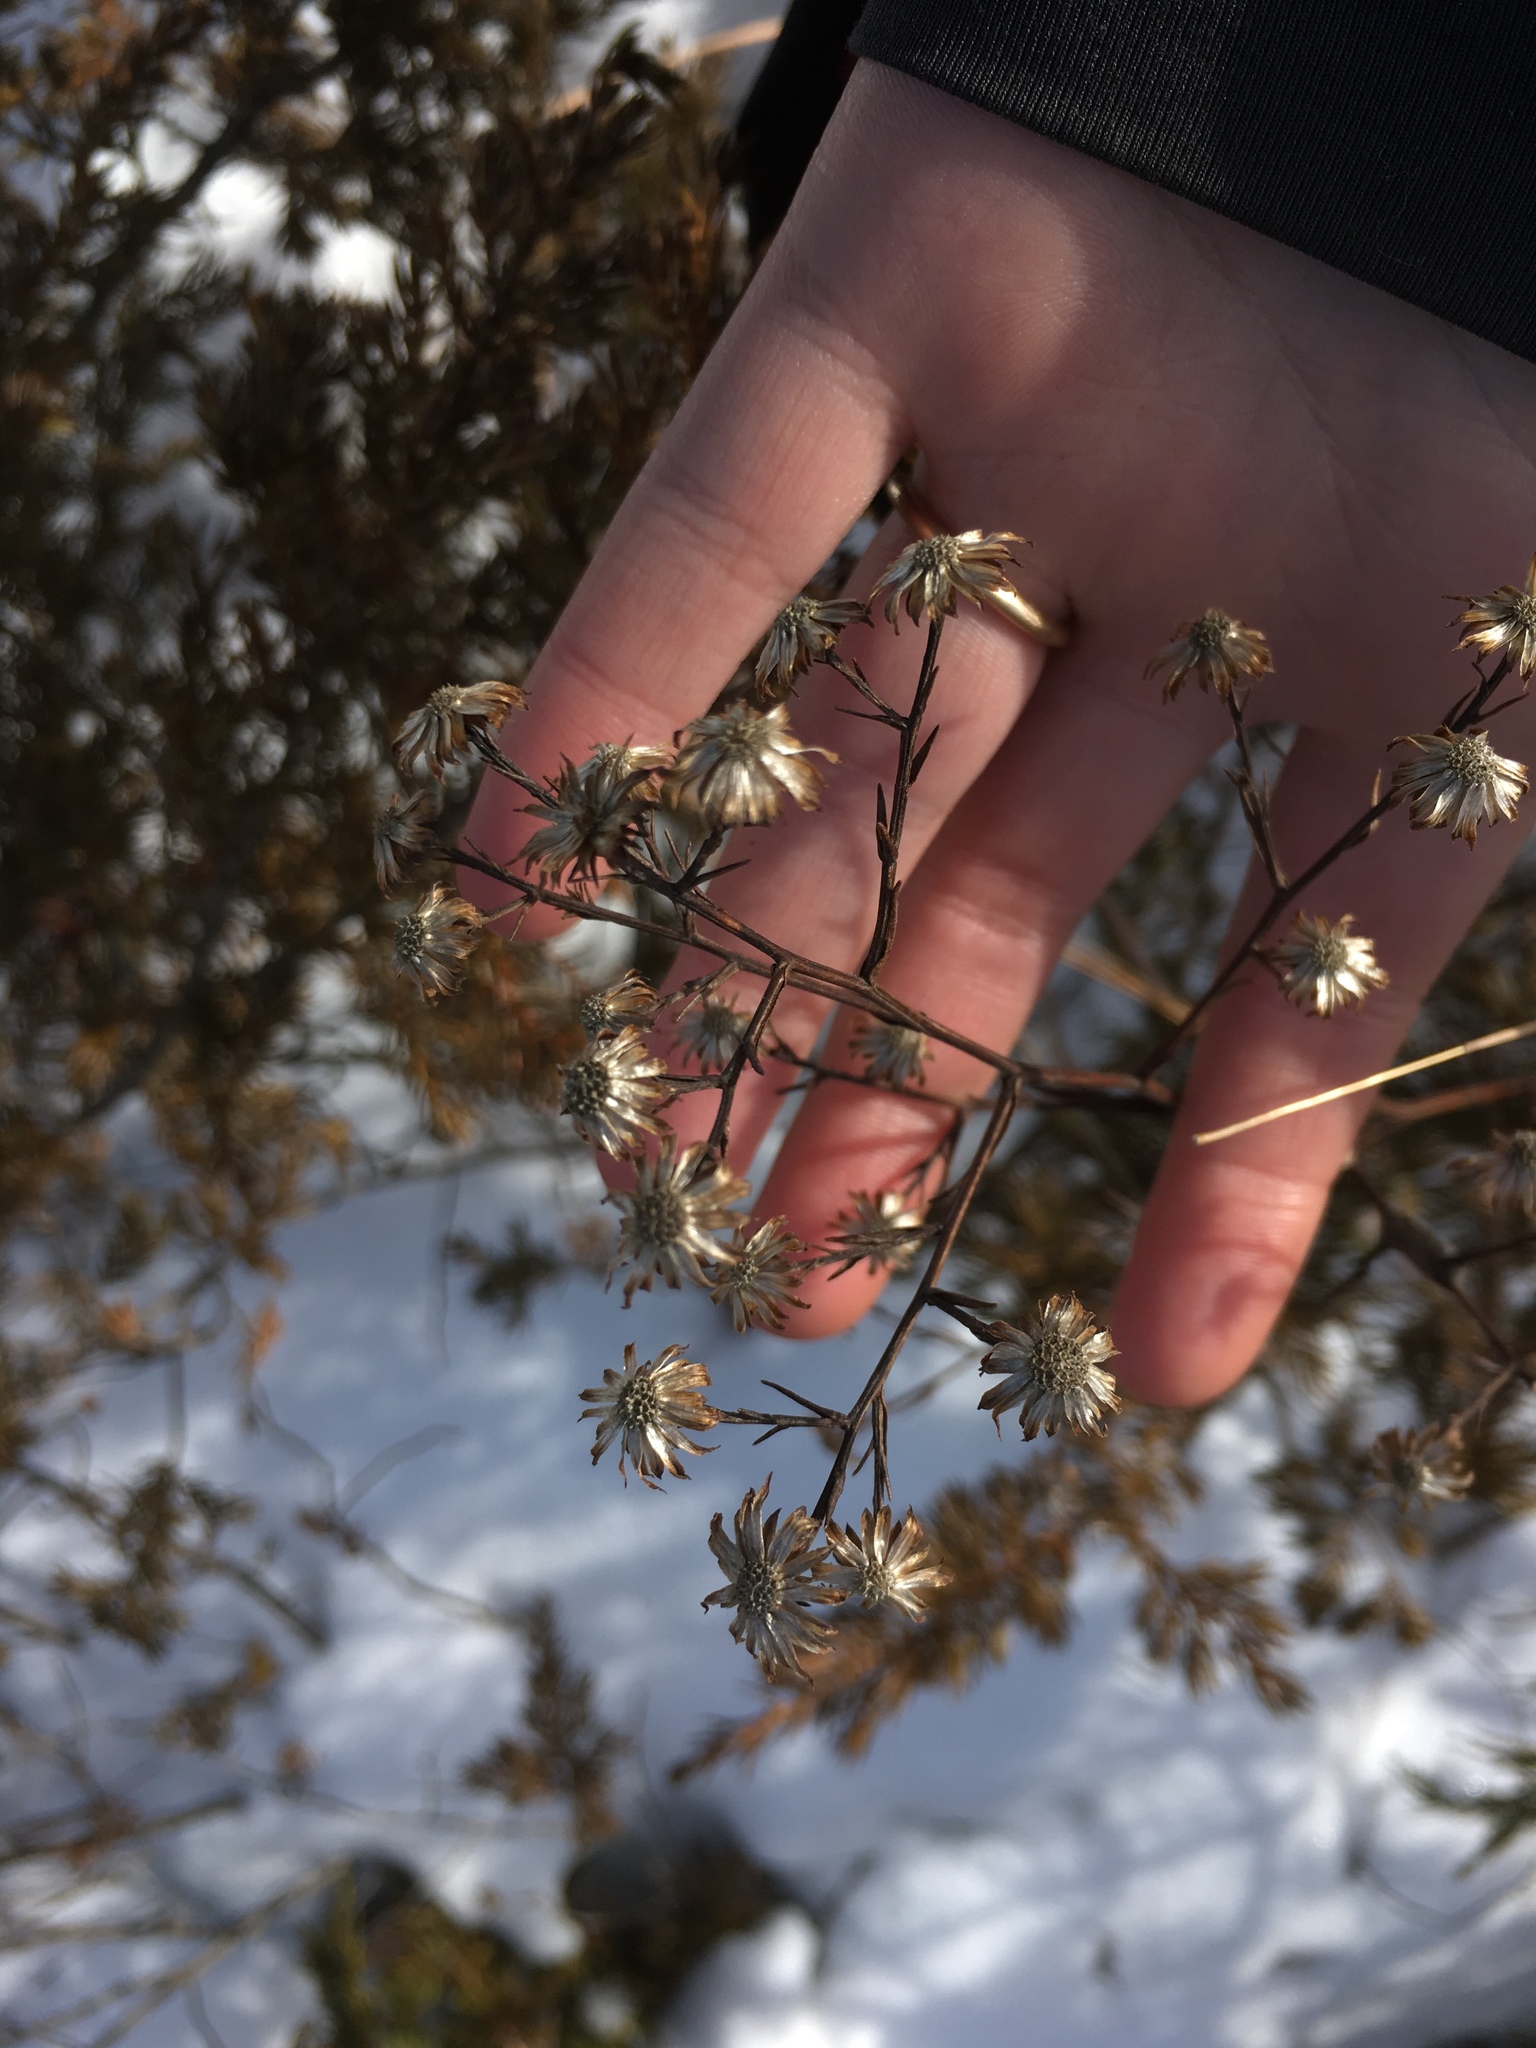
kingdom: Plantae
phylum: Tracheophyta
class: Magnoliopsida
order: Asterales
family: Asteraceae
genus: Symphyotrichum
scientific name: Symphyotrichum laeve
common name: Glaucous aster
